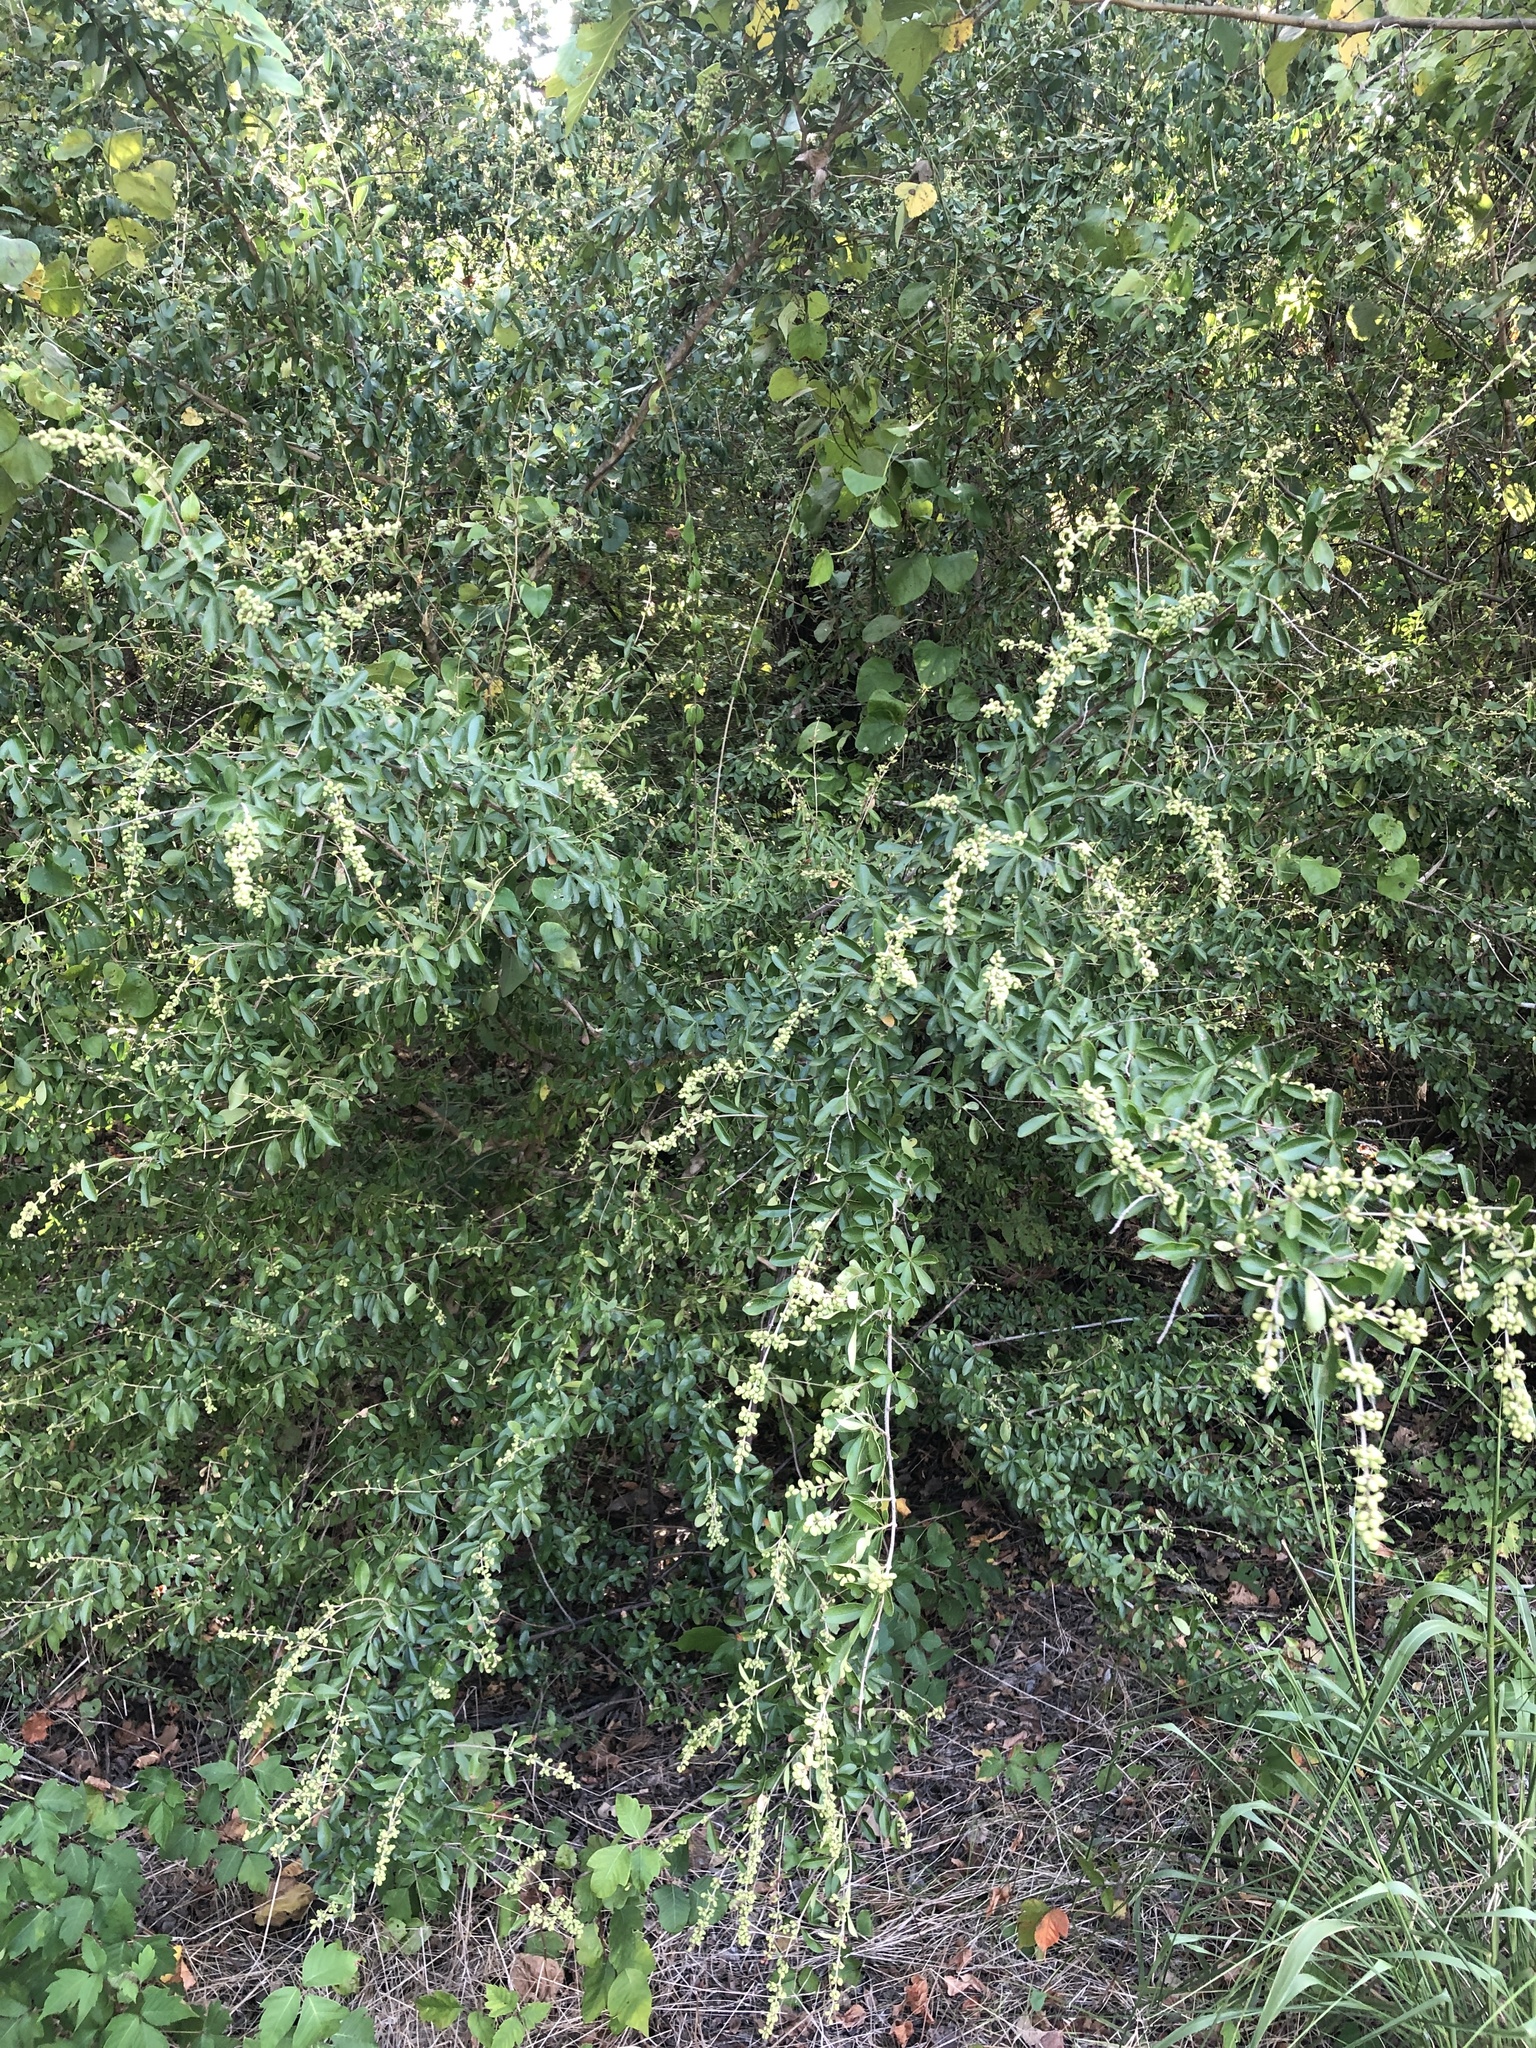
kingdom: Plantae
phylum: Tracheophyta
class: Magnoliopsida
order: Lamiales
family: Oleaceae
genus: Ligustrum
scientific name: Ligustrum quihoui
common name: Waxyleaf privet
